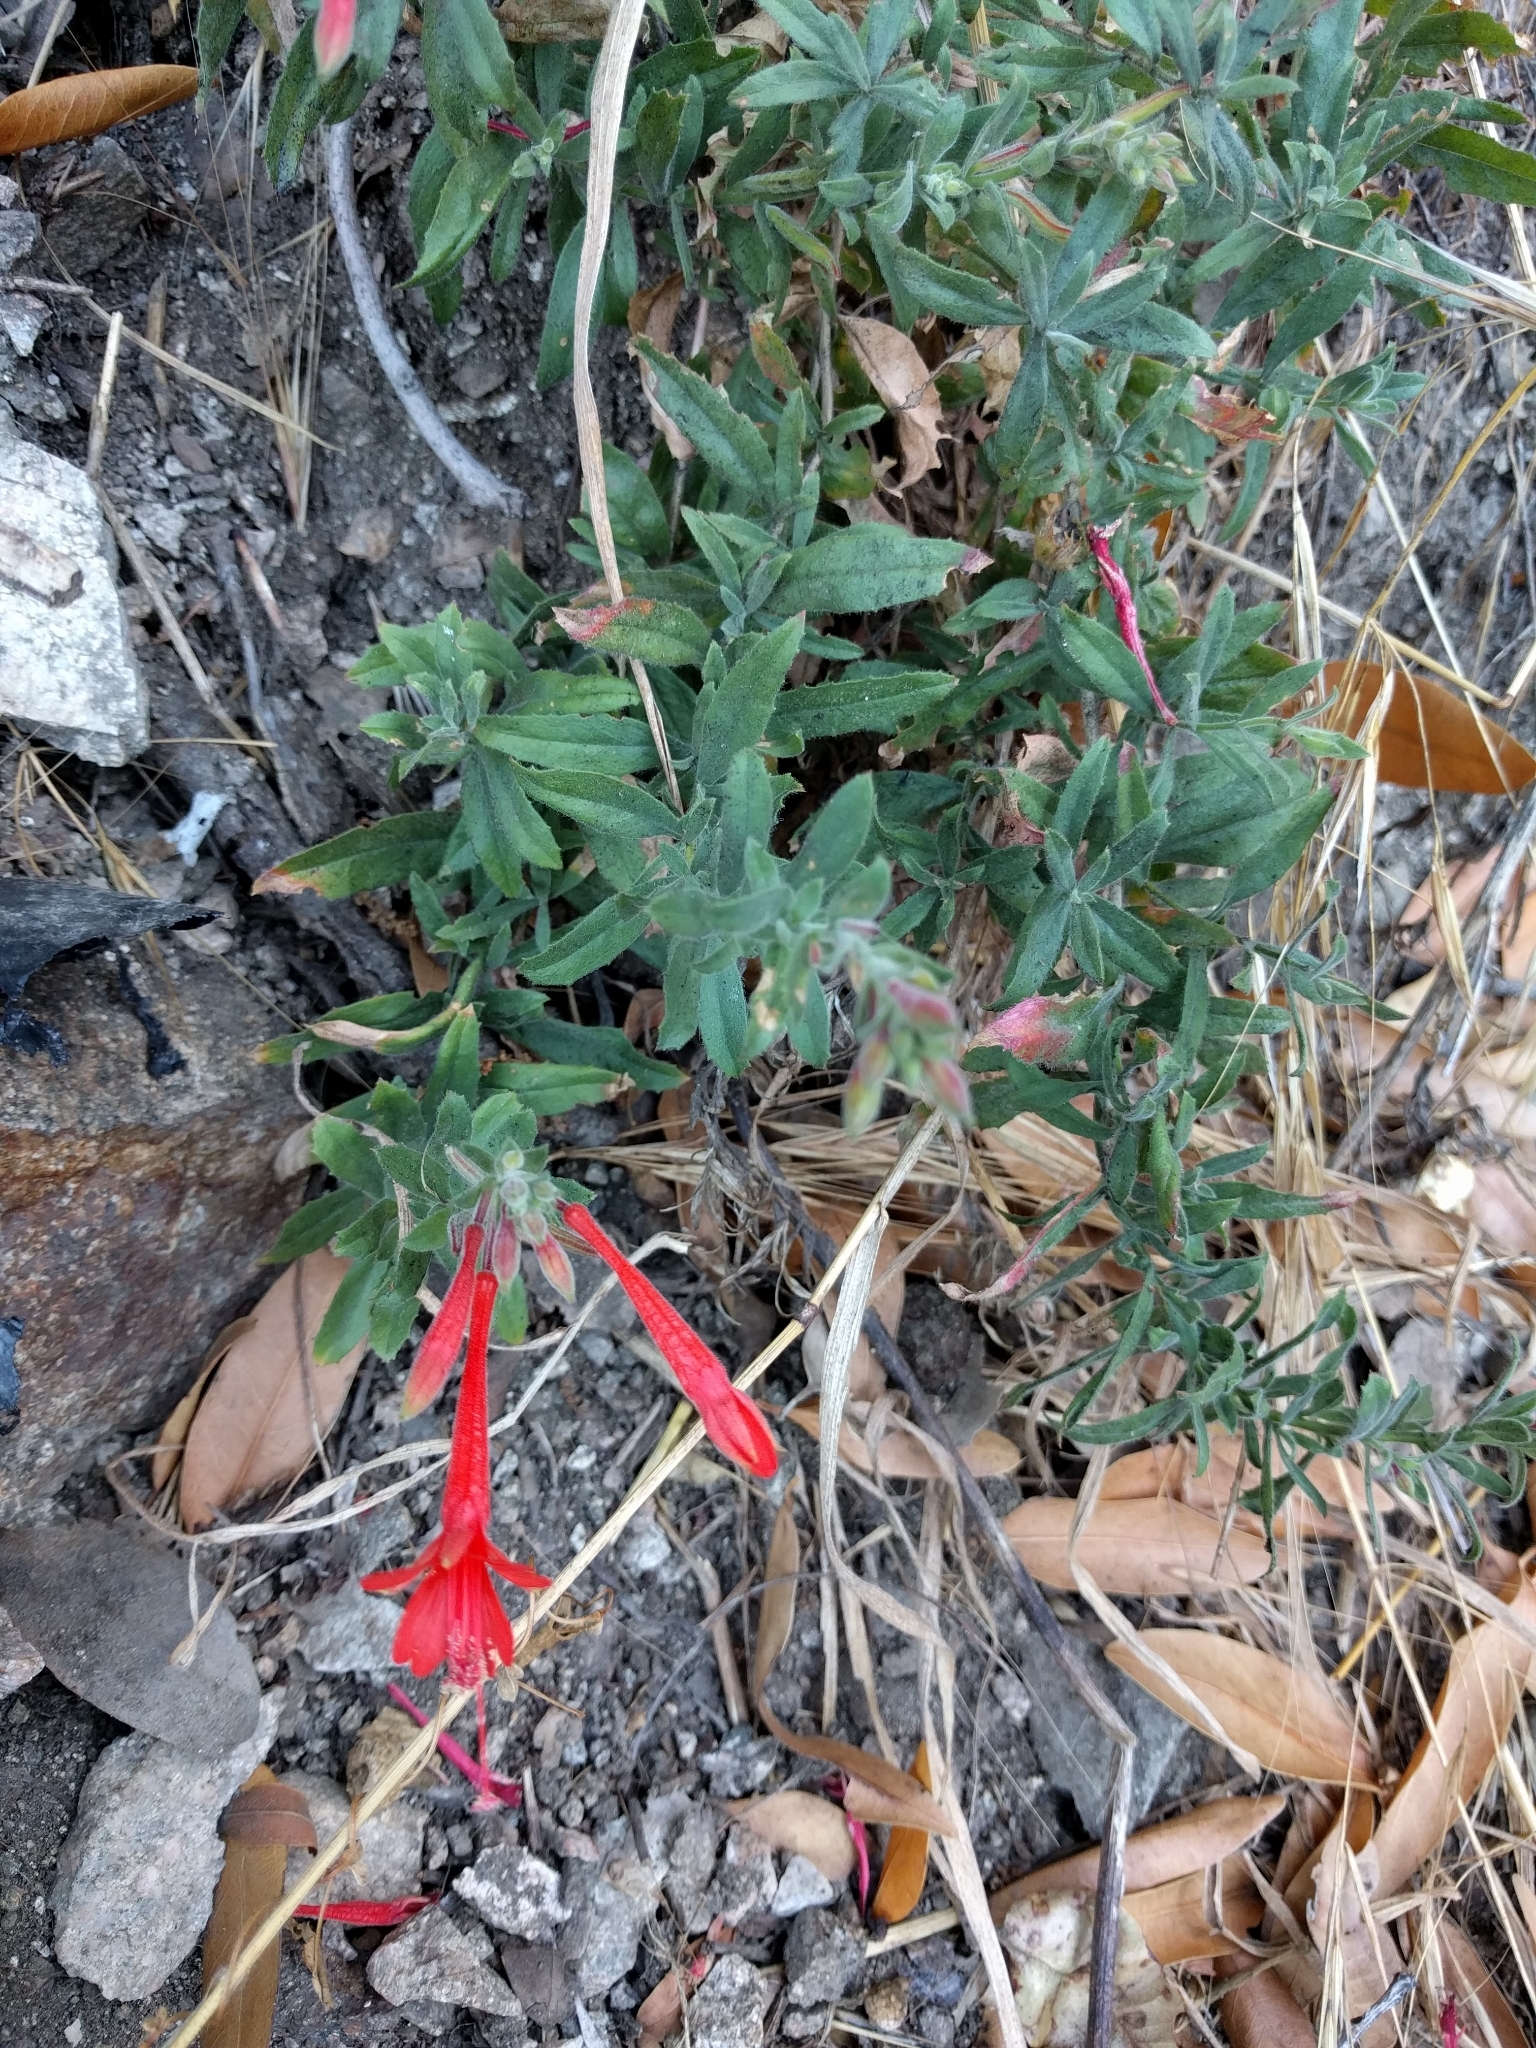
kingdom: Plantae
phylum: Tracheophyta
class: Magnoliopsida
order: Myrtales
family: Onagraceae
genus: Epilobium
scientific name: Epilobium canum
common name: California-fuchsia
